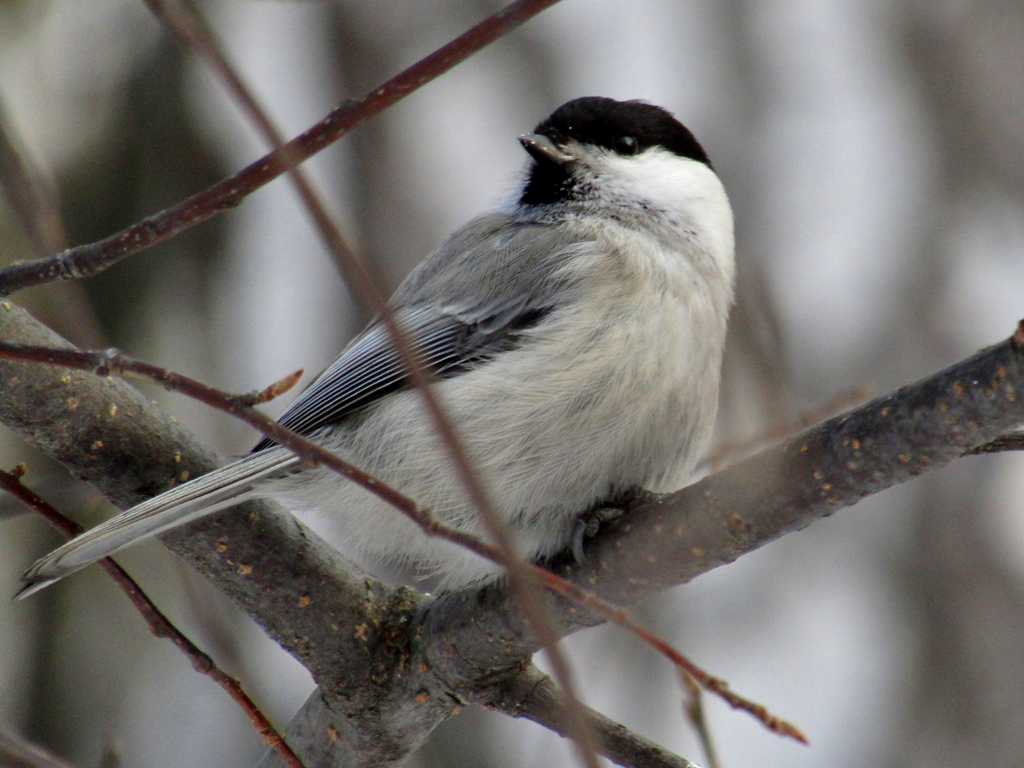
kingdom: Animalia
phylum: Chordata
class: Aves
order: Passeriformes
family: Paridae
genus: Poecile
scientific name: Poecile montanus
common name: Willow tit
